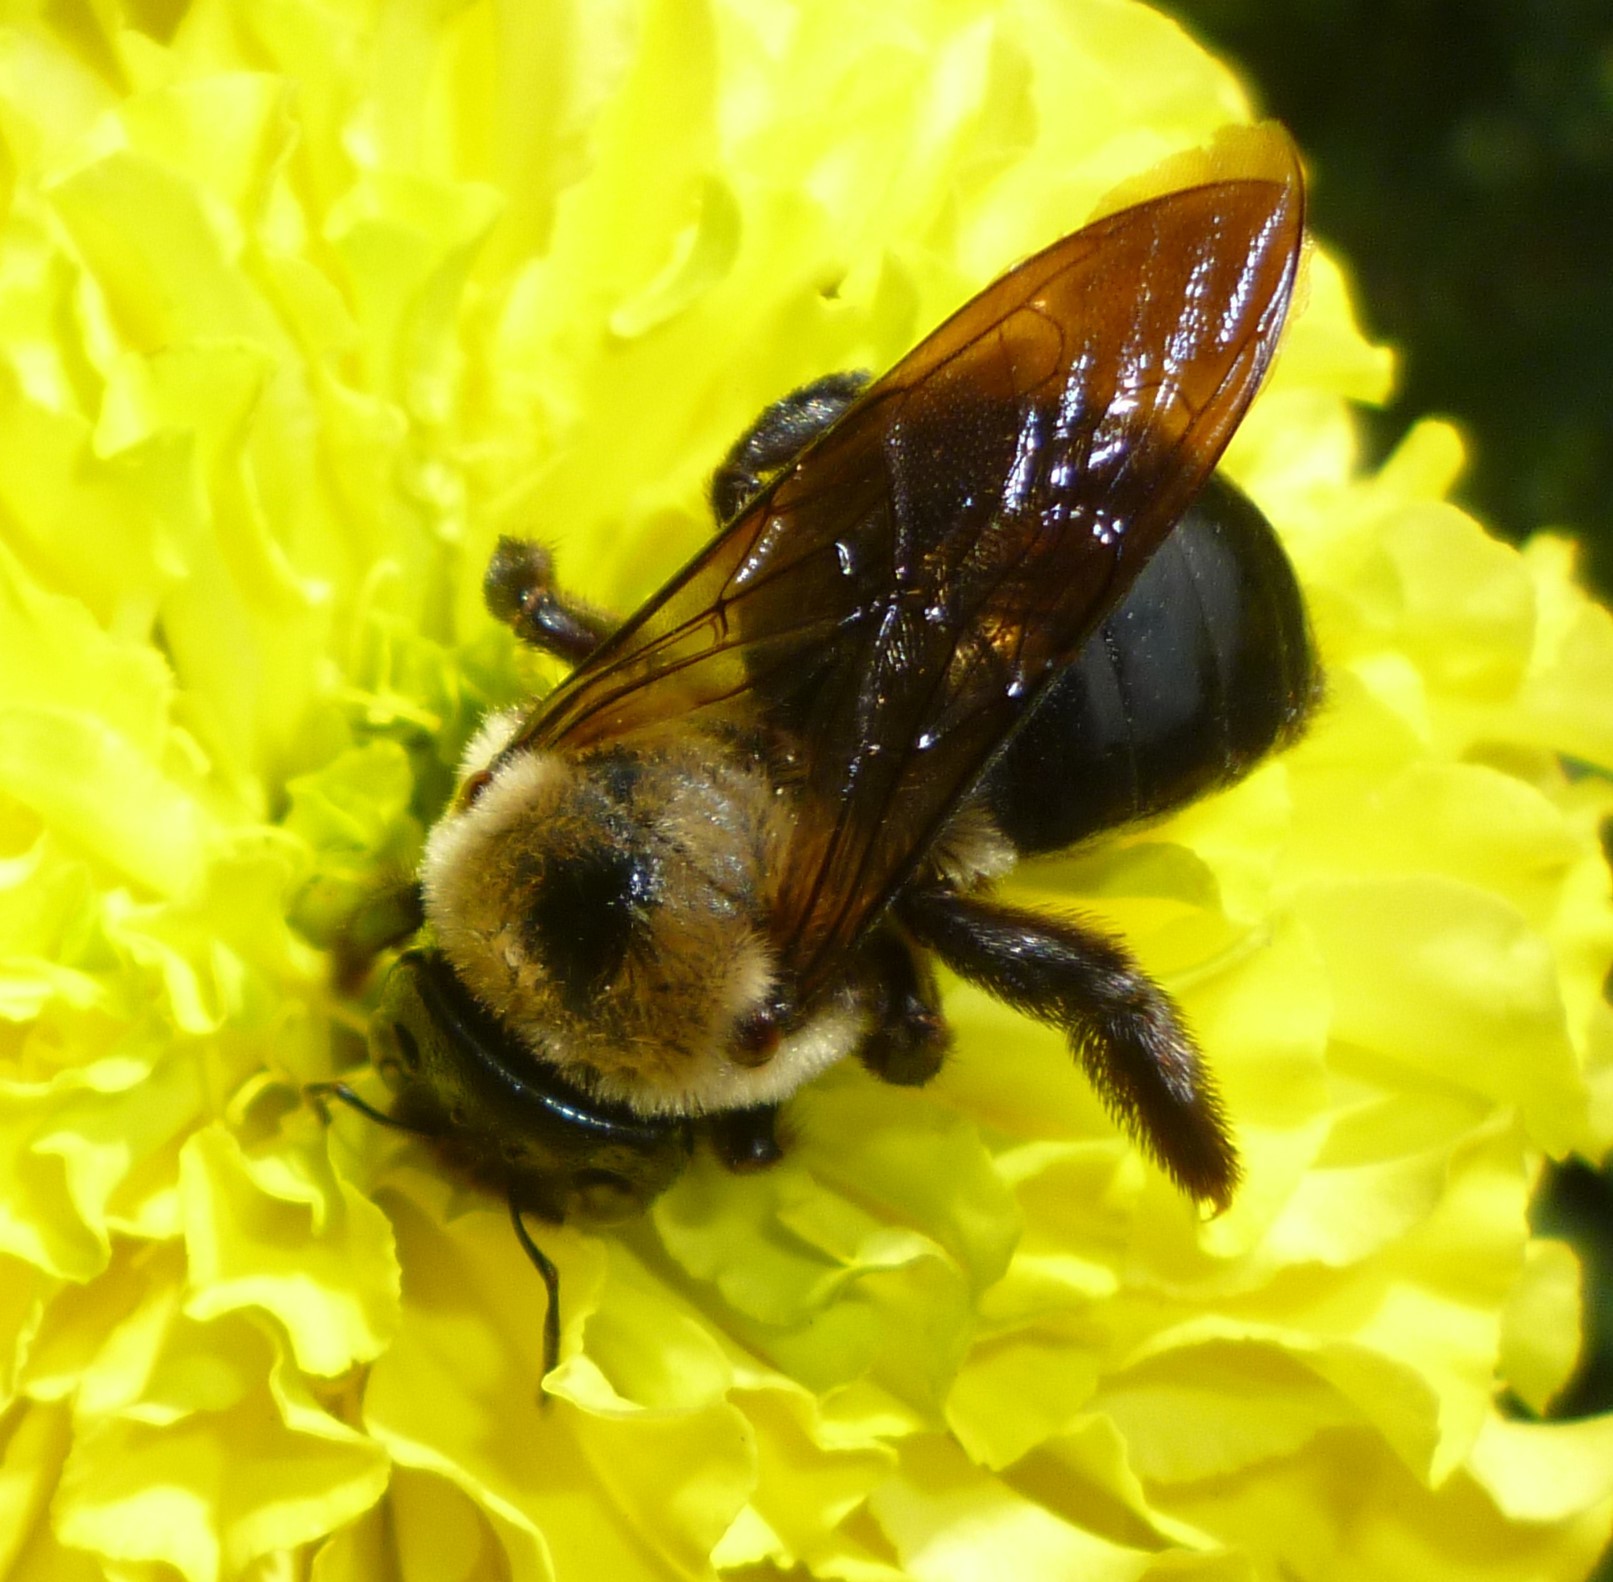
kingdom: Animalia
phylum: Arthropoda
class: Insecta
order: Hymenoptera
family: Apidae
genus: Xylocopa
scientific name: Xylocopa virginica
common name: Carpenter bee
